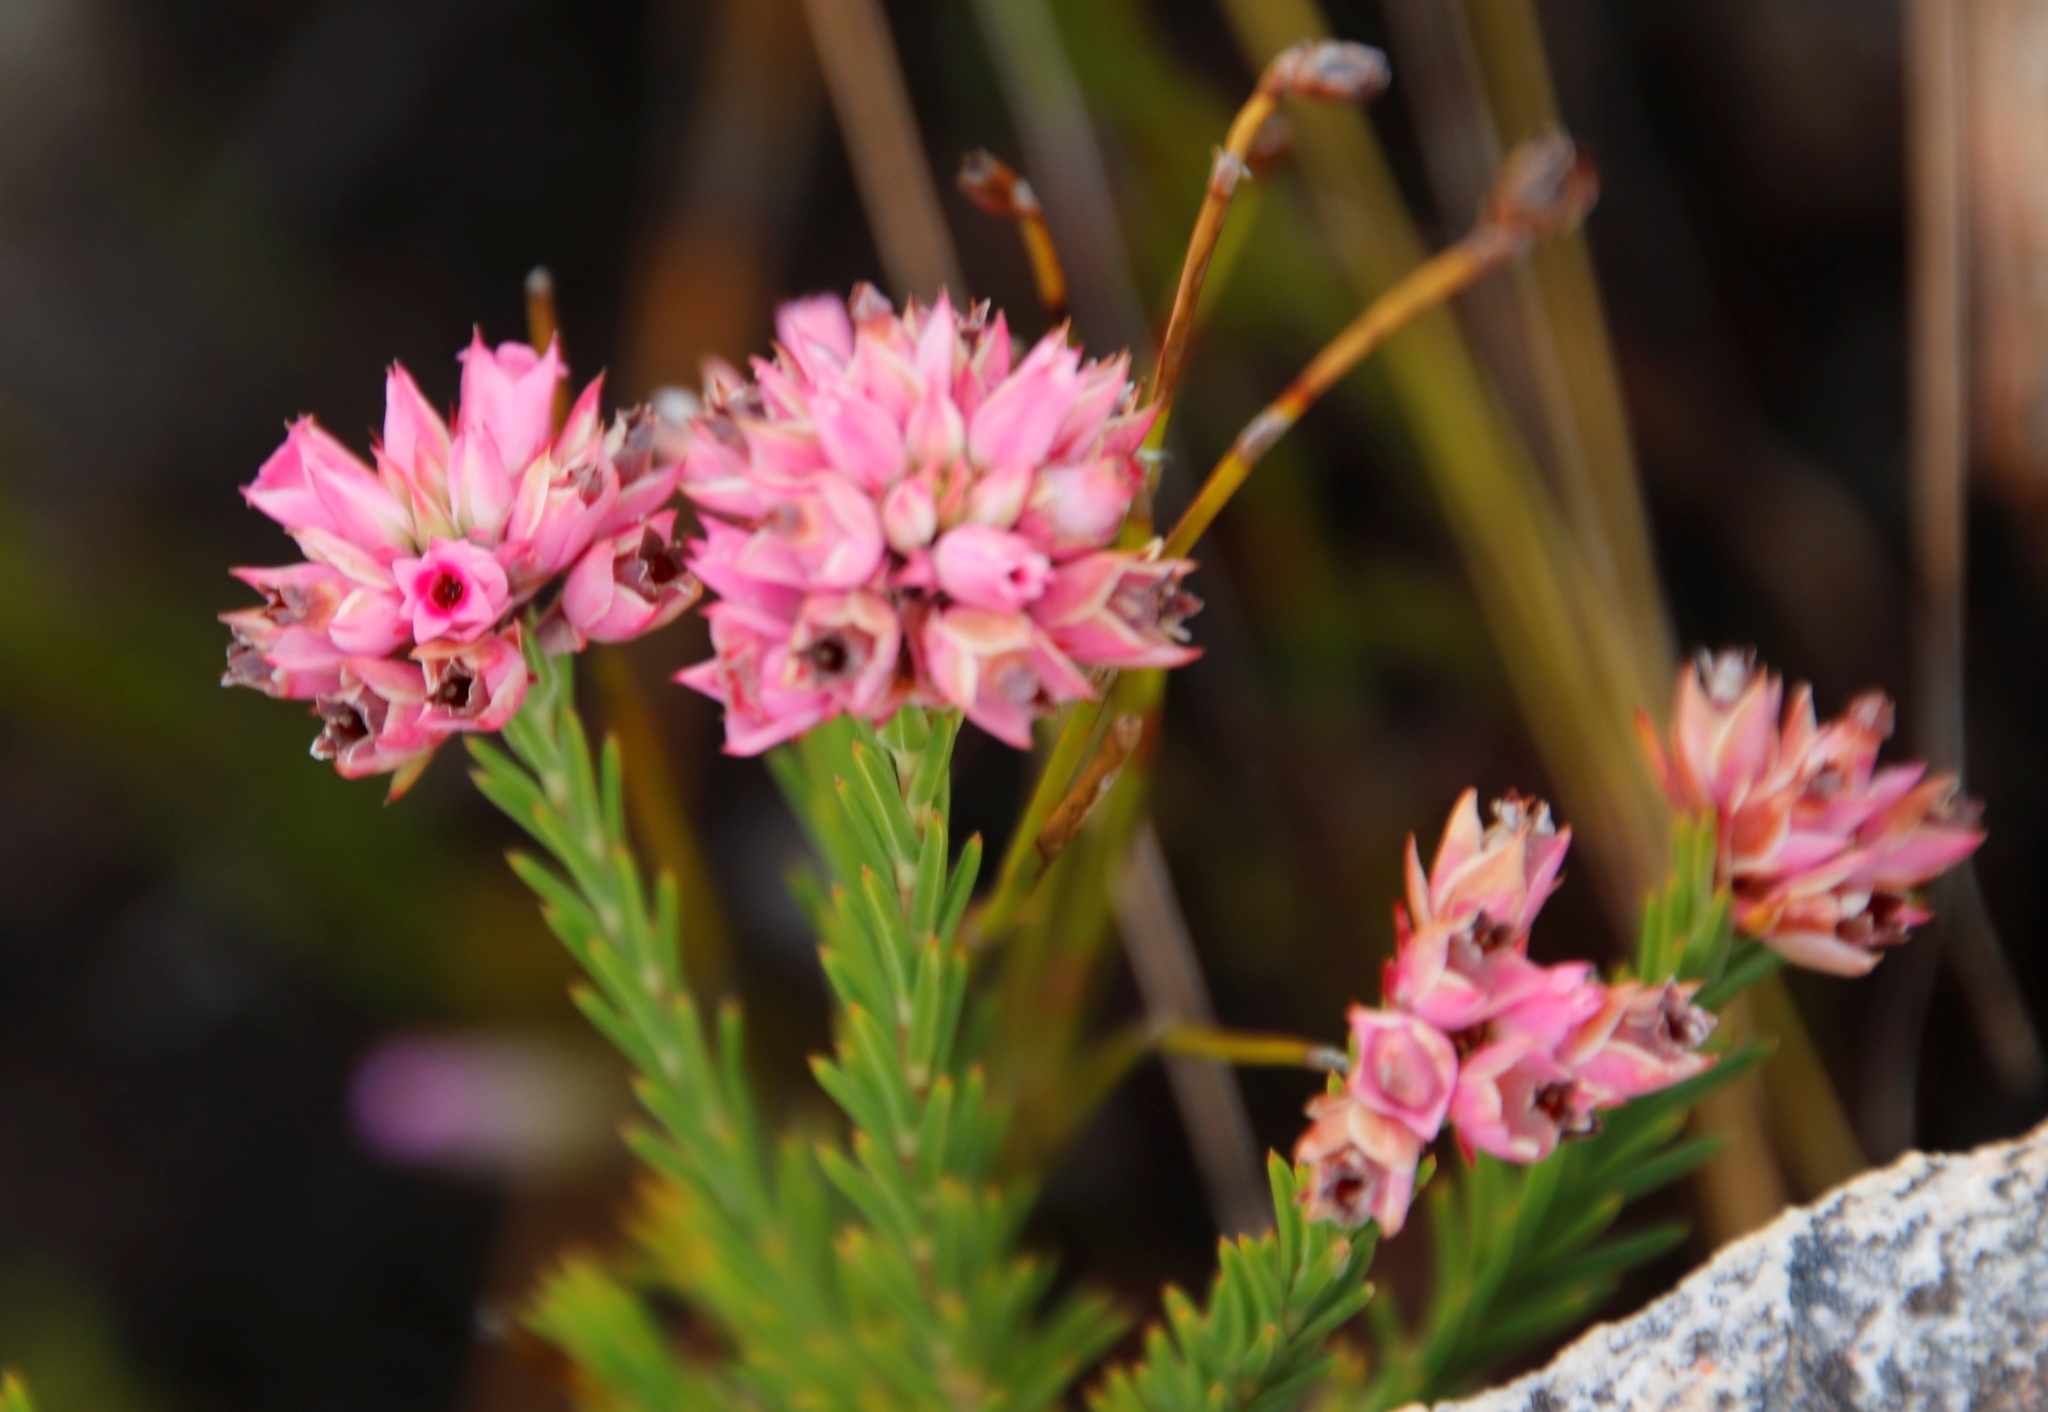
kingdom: Plantae
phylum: Tracheophyta
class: Magnoliopsida
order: Ericales
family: Ericaceae
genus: Erica
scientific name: Erica taxifolia
